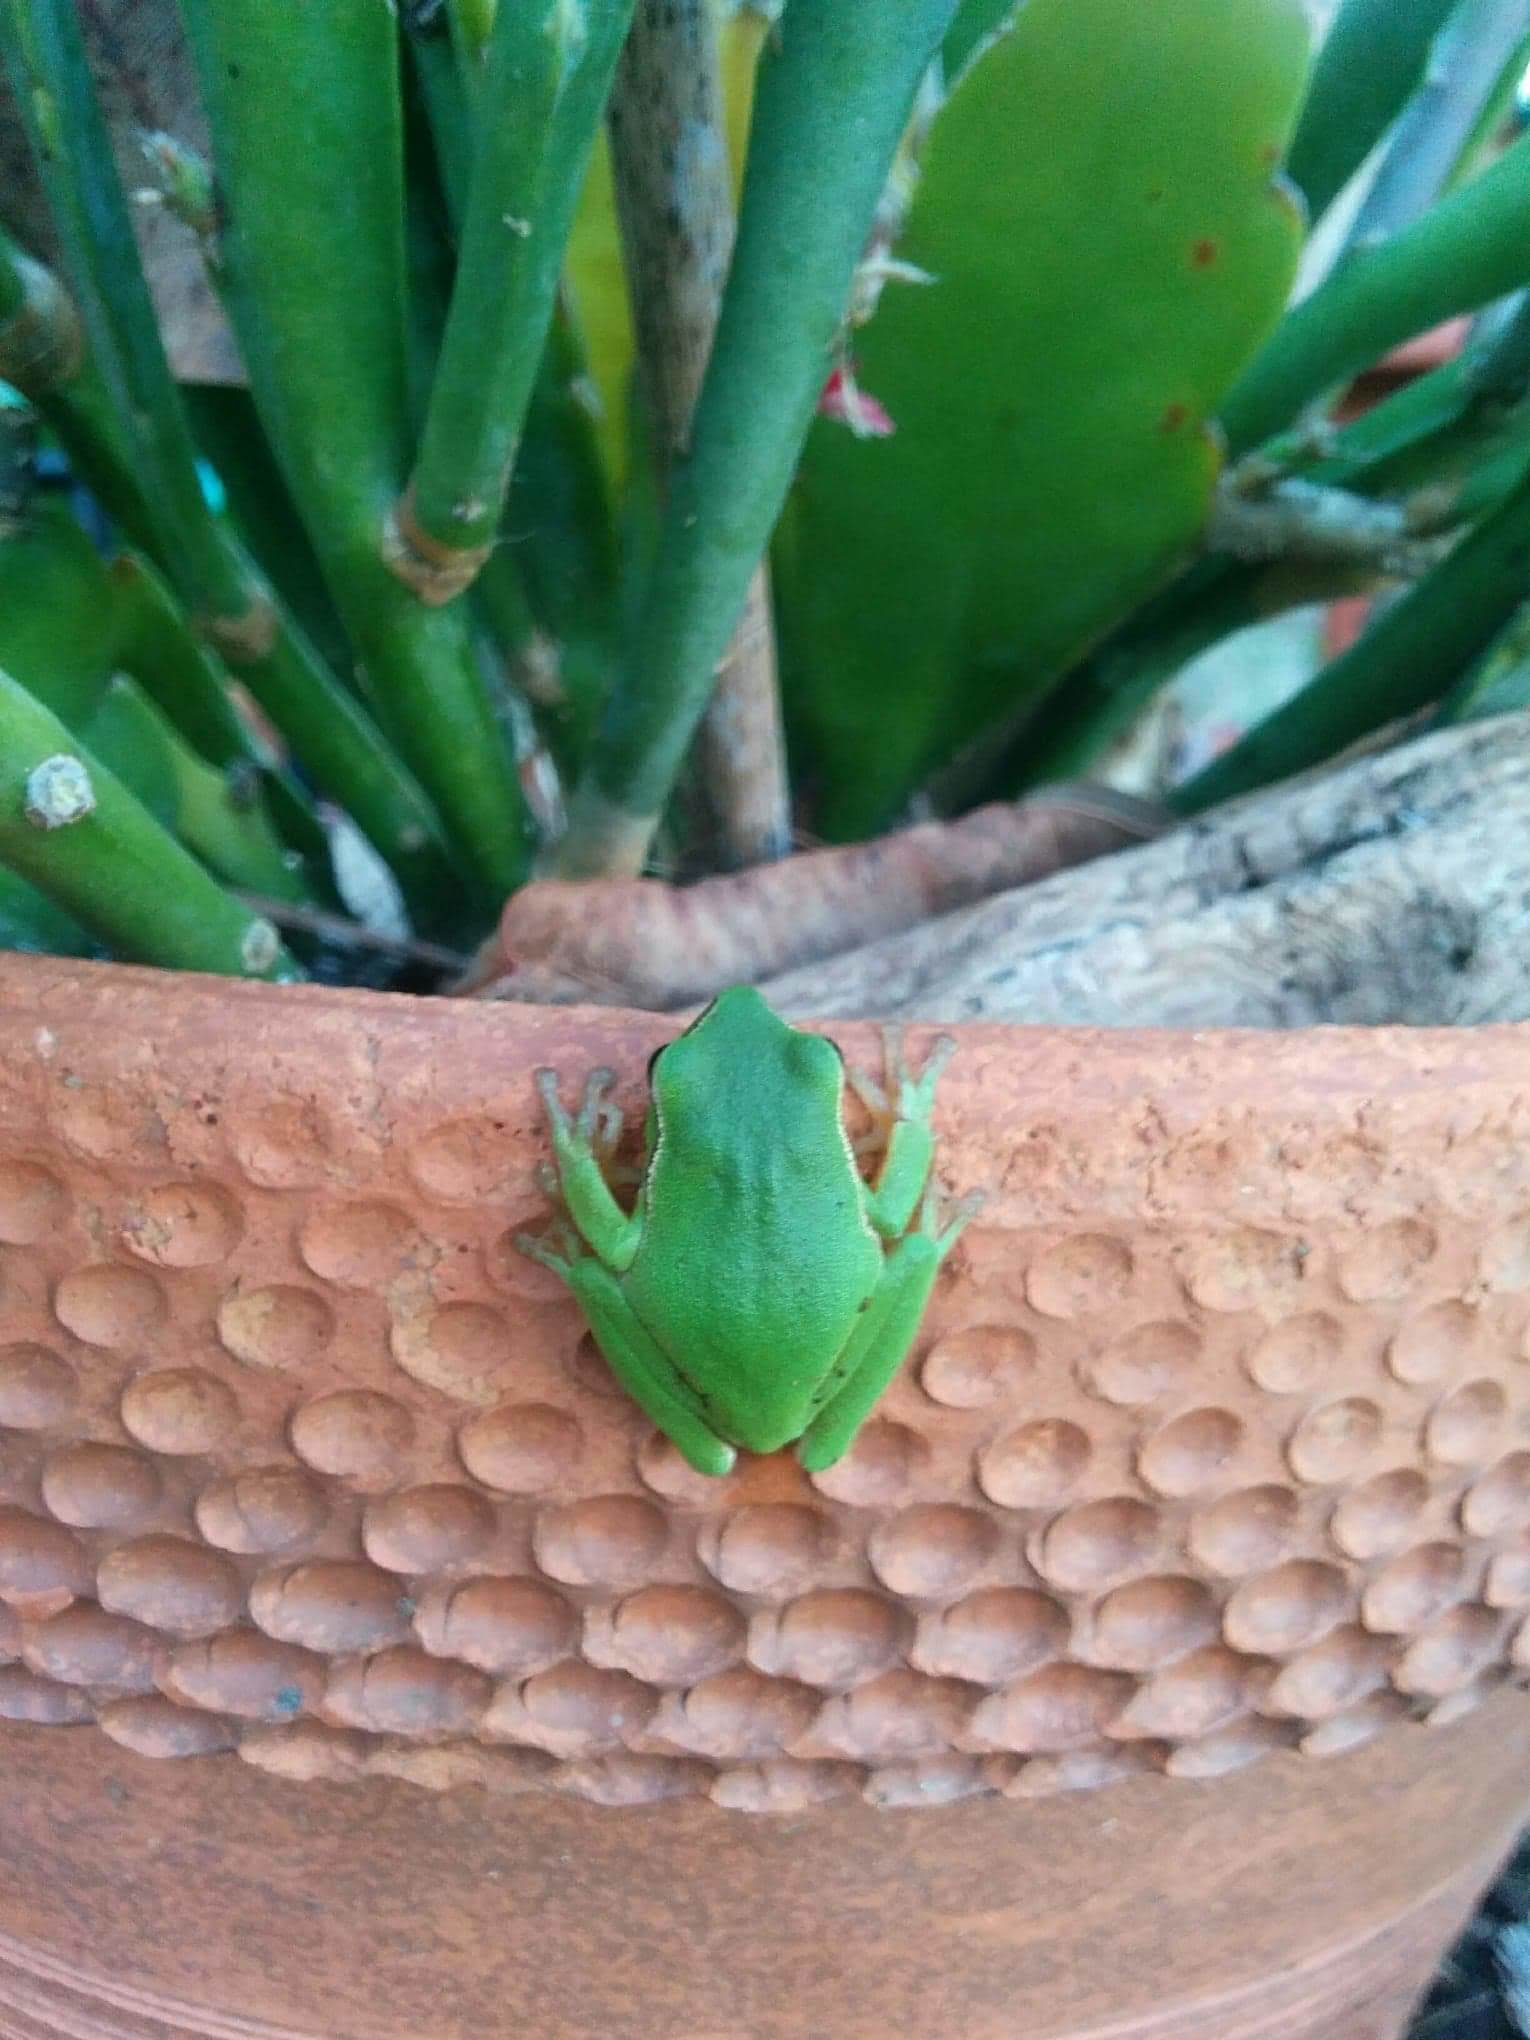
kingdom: Animalia
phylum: Chordata
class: Amphibia
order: Anura
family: Pelodryadidae
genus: Ranoidea
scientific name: Ranoidea phyllochroa
